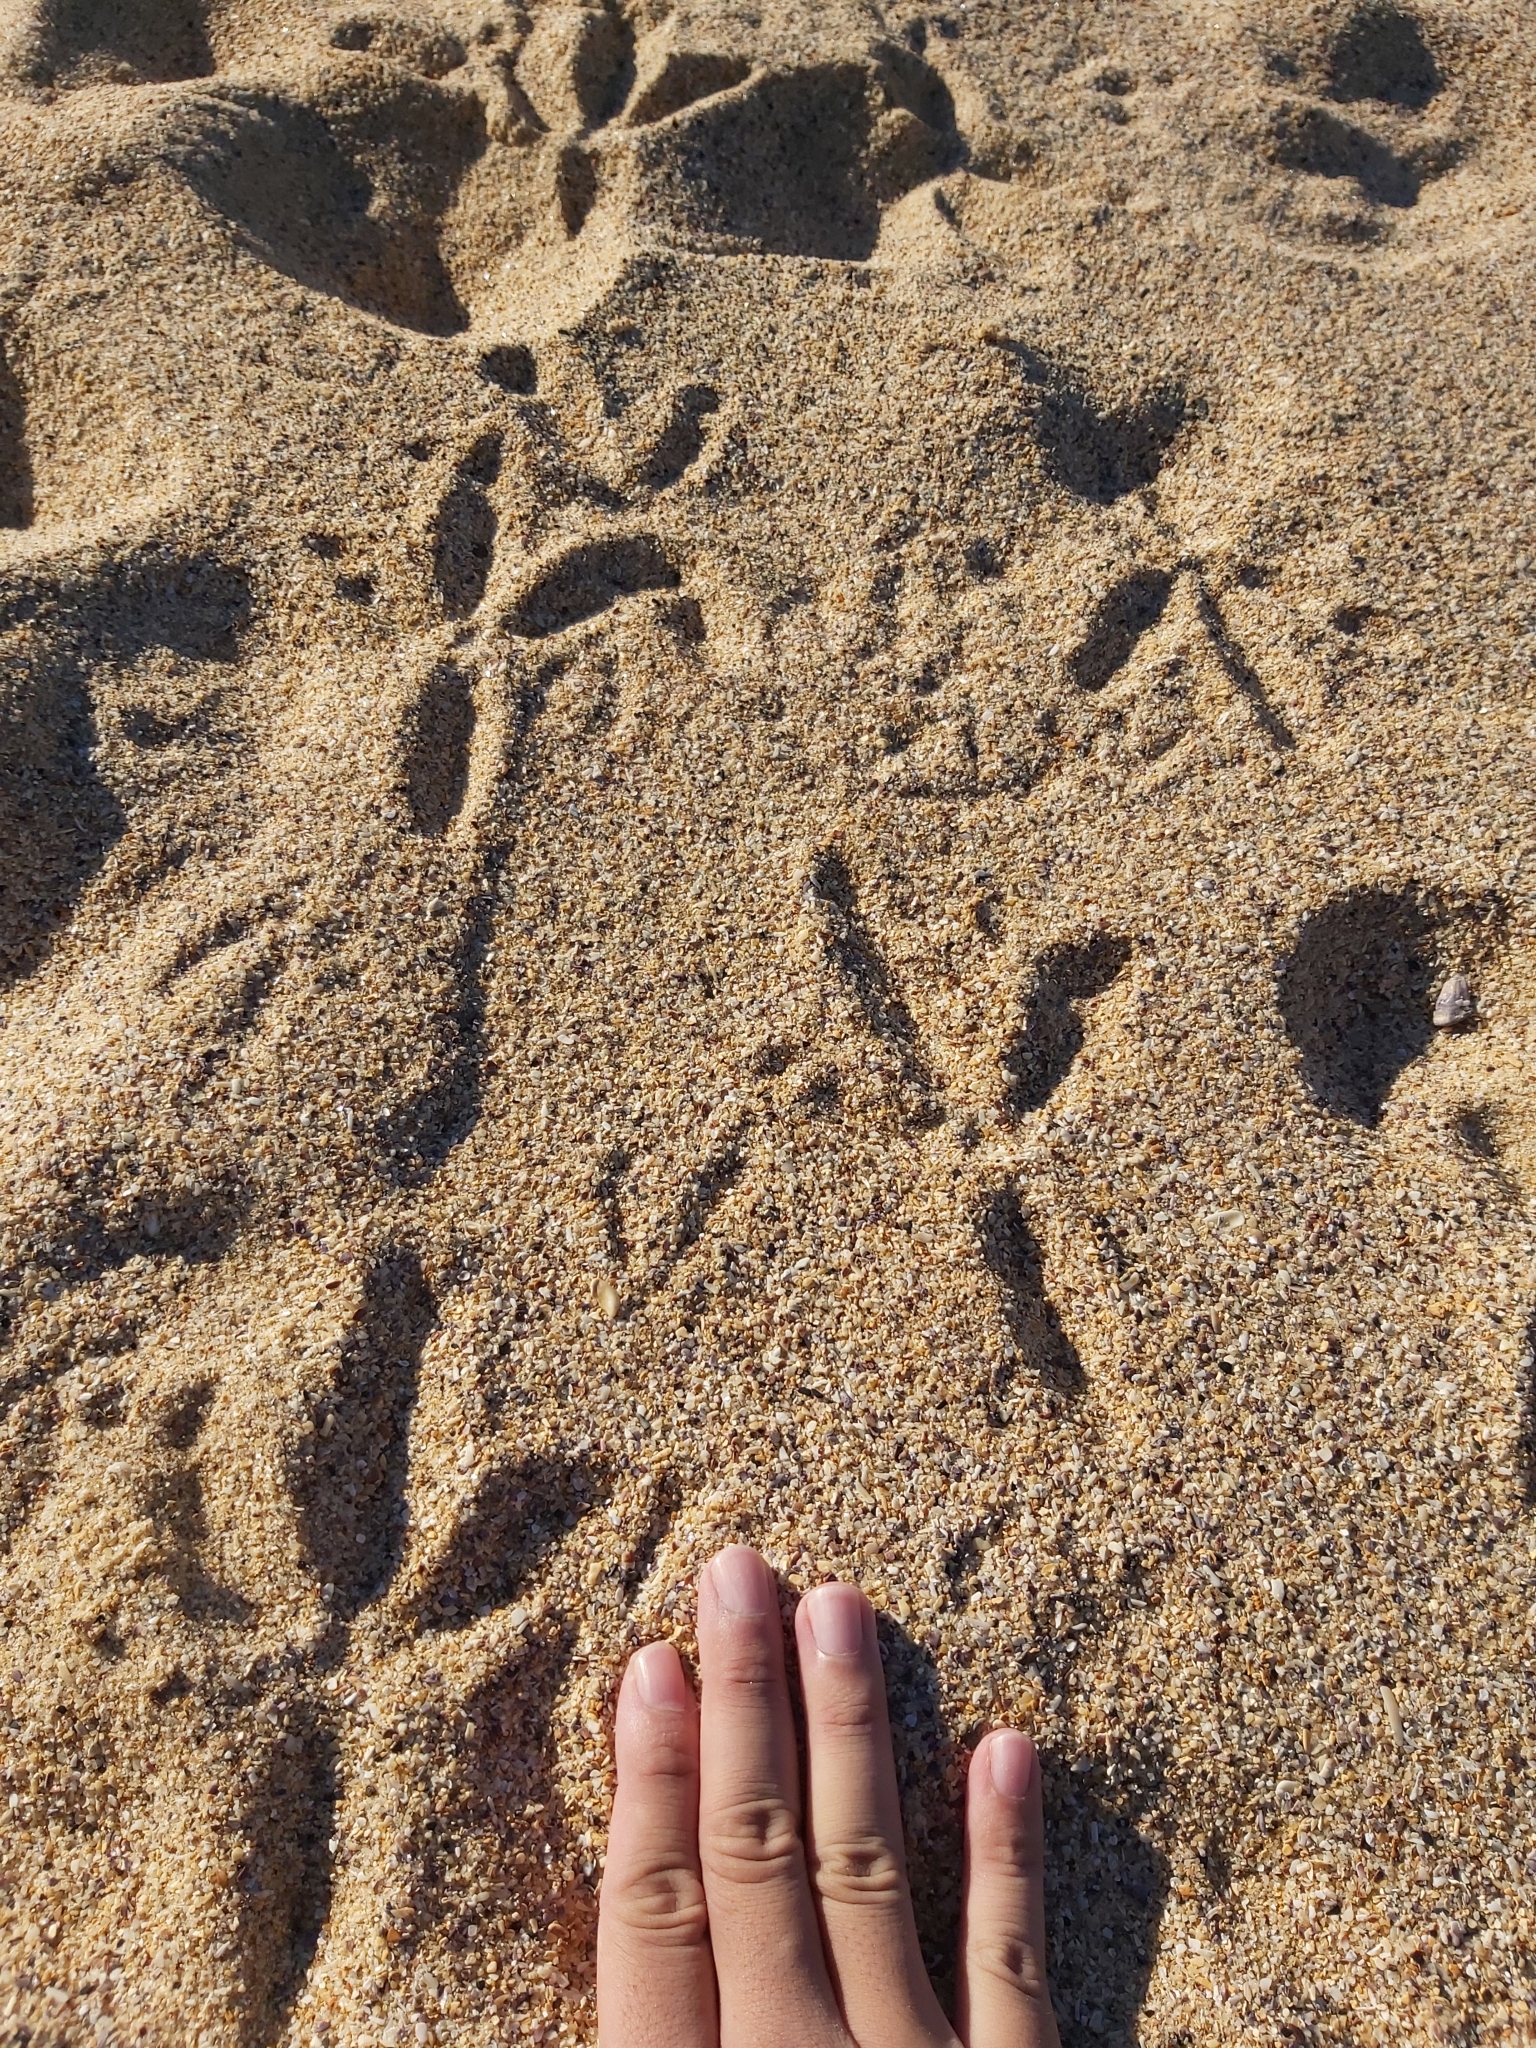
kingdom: Animalia
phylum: Chordata
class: Aves
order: Galliformes
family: Megapodiidae
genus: Alectura
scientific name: Alectura lathami
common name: Australian brushturkey
